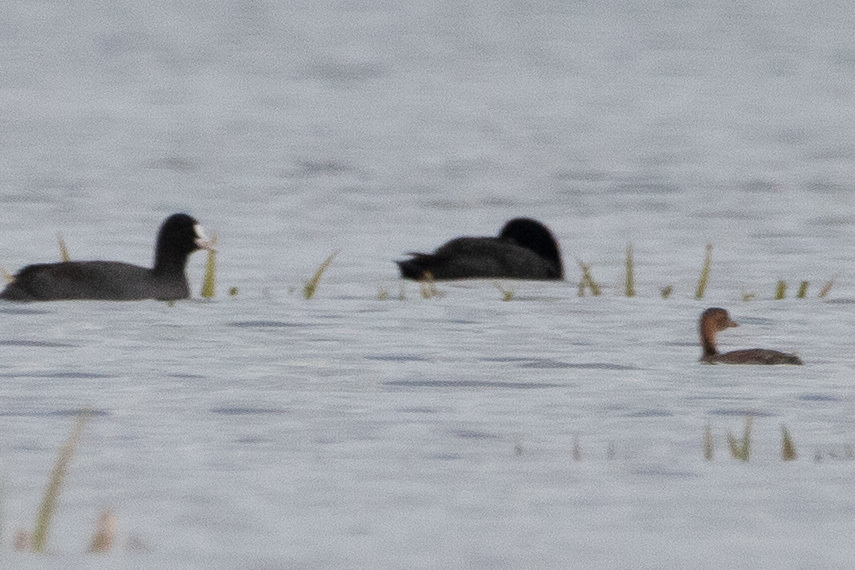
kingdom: Animalia
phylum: Chordata
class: Aves
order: Podicipediformes
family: Podicipedidae
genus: Tachybaptus
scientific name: Tachybaptus ruficollis
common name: Little grebe
